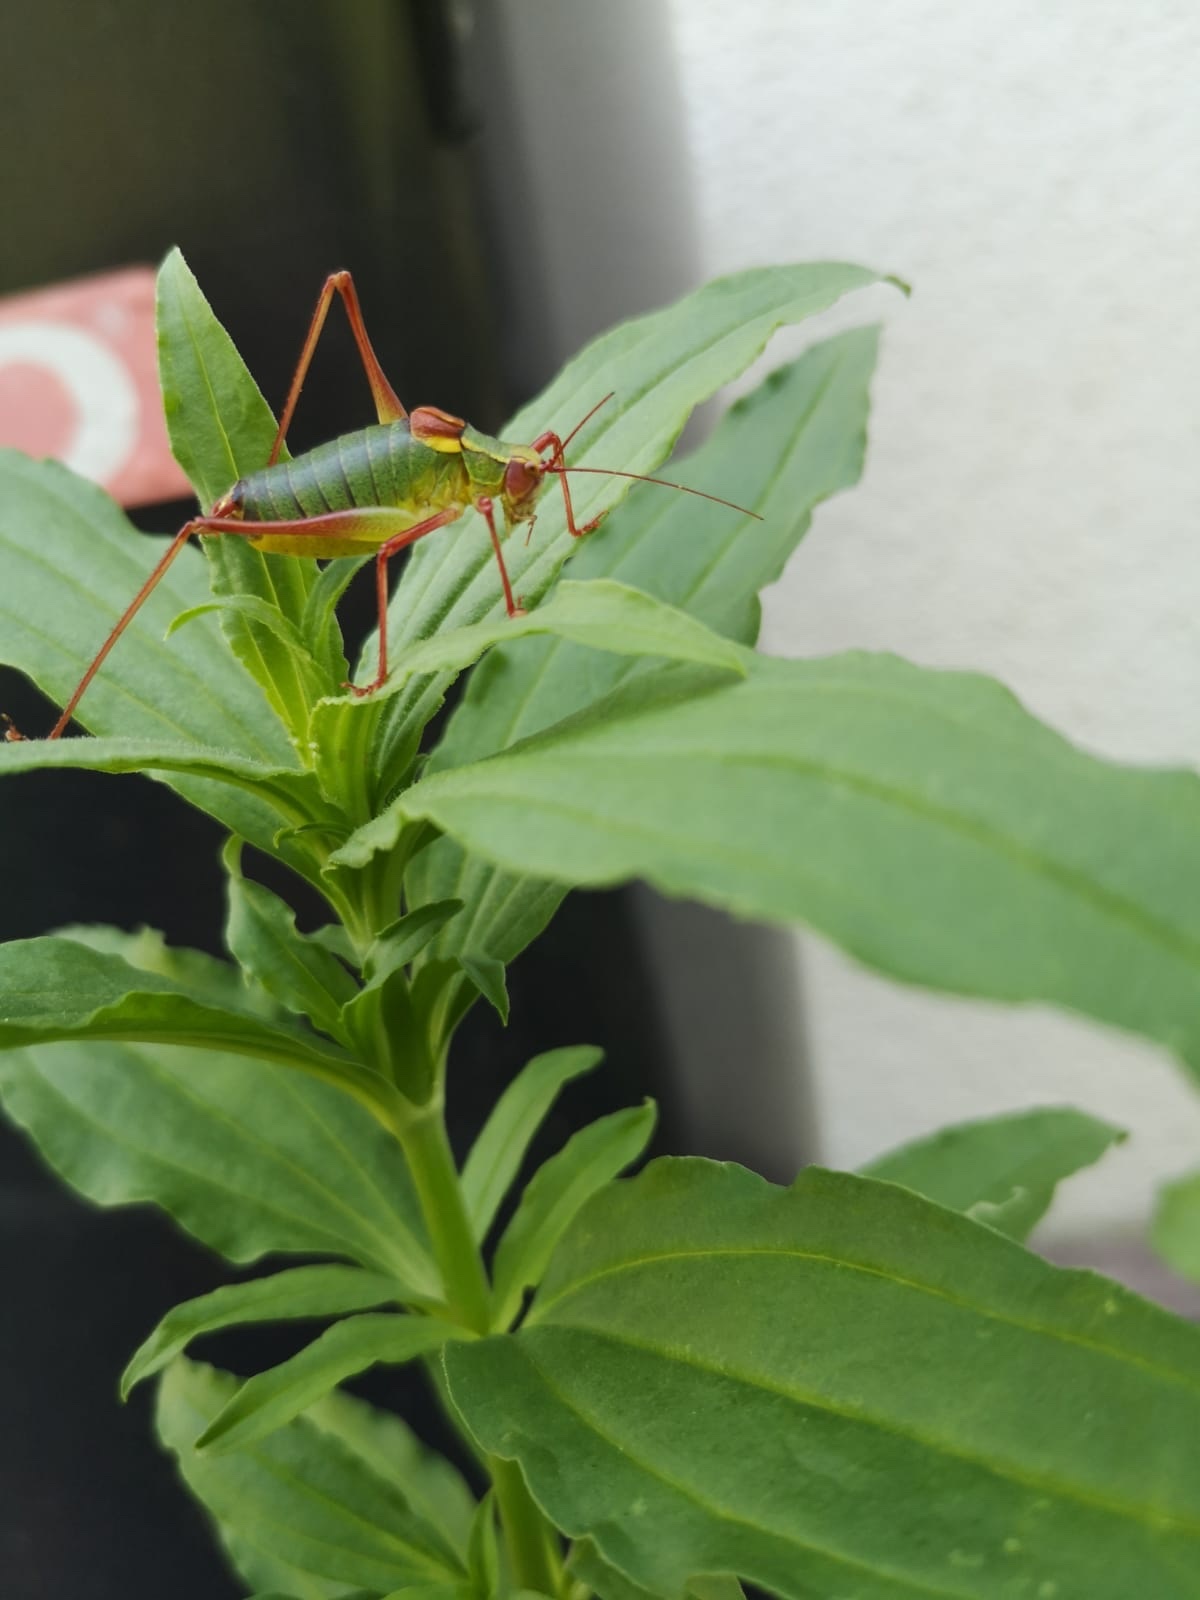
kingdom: Animalia
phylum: Arthropoda
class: Insecta
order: Orthoptera
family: Tettigoniidae
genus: Barbitistes
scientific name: Barbitistes serricauda
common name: Saw-tailed bush-cricket
